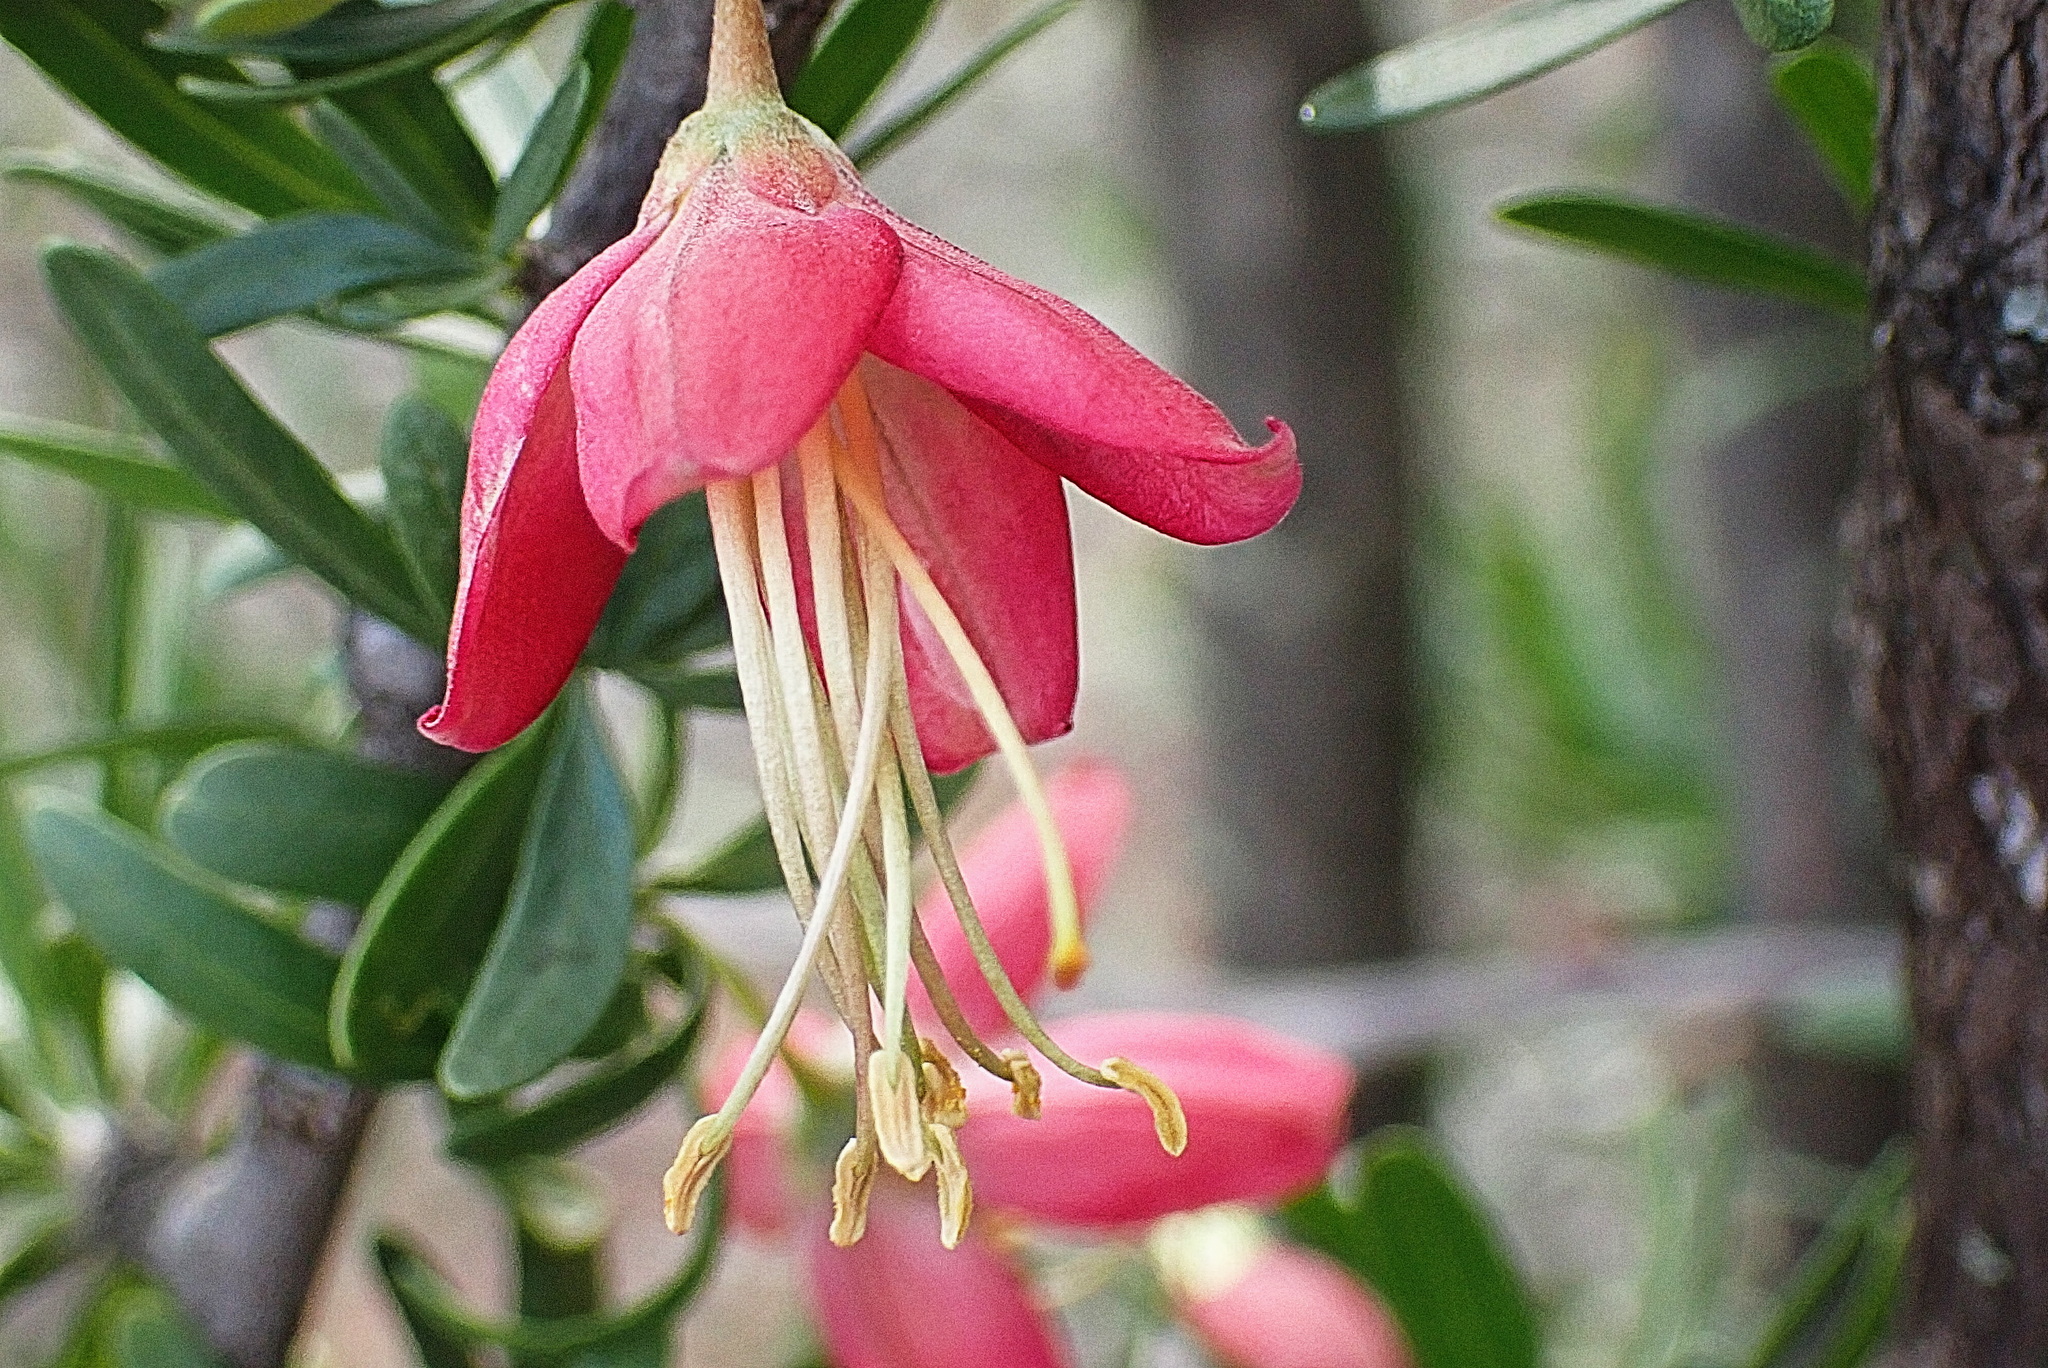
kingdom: Plantae
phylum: Tracheophyta
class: Magnoliopsida
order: Sapindales
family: Meliaceae
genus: Nymania
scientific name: Nymania capensis
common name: Chinese lantern tree
